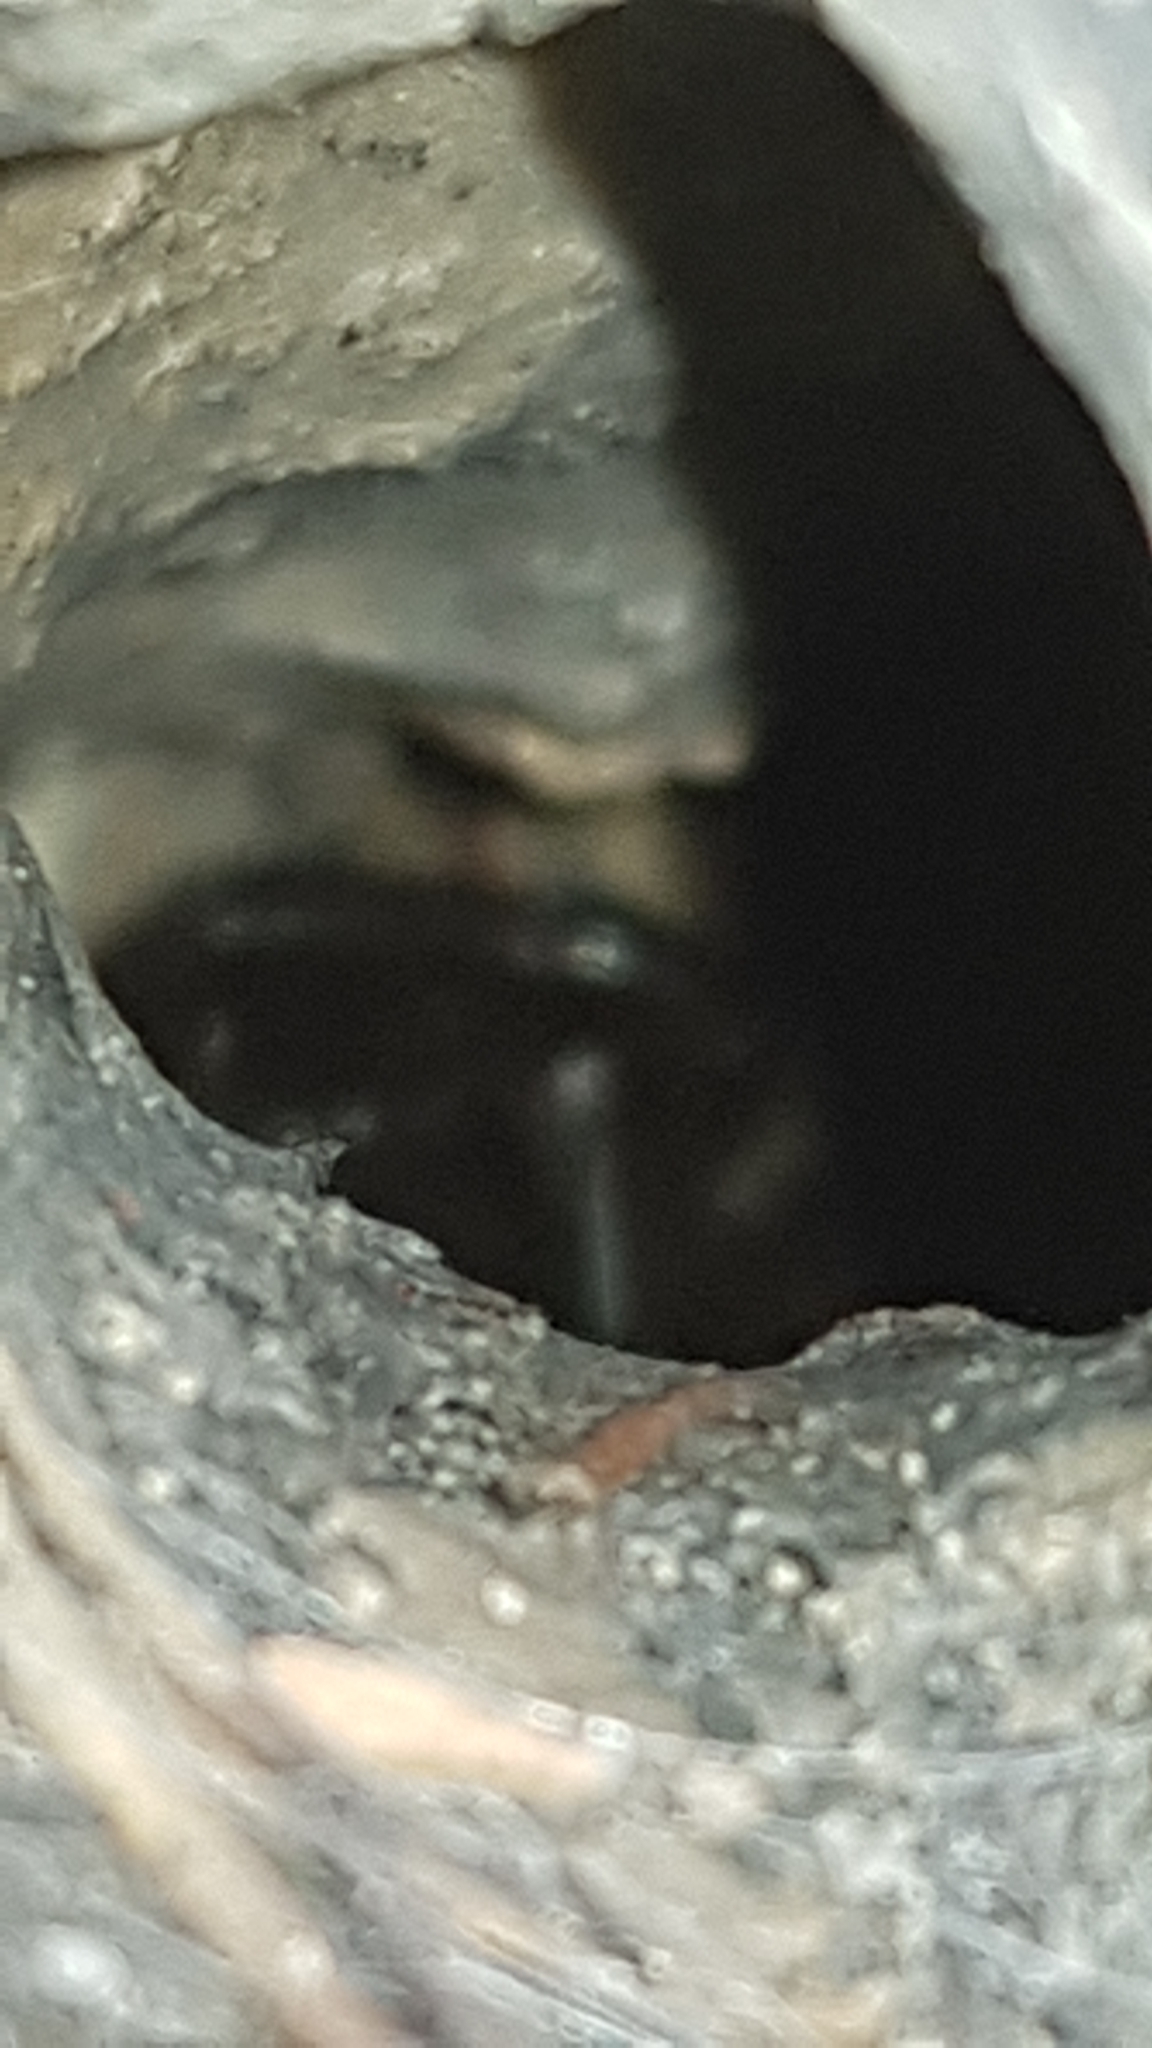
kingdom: Animalia
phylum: Arthropoda
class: Arachnida
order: Araneae
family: Atracidae
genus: Atrax
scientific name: Atrax robustus
